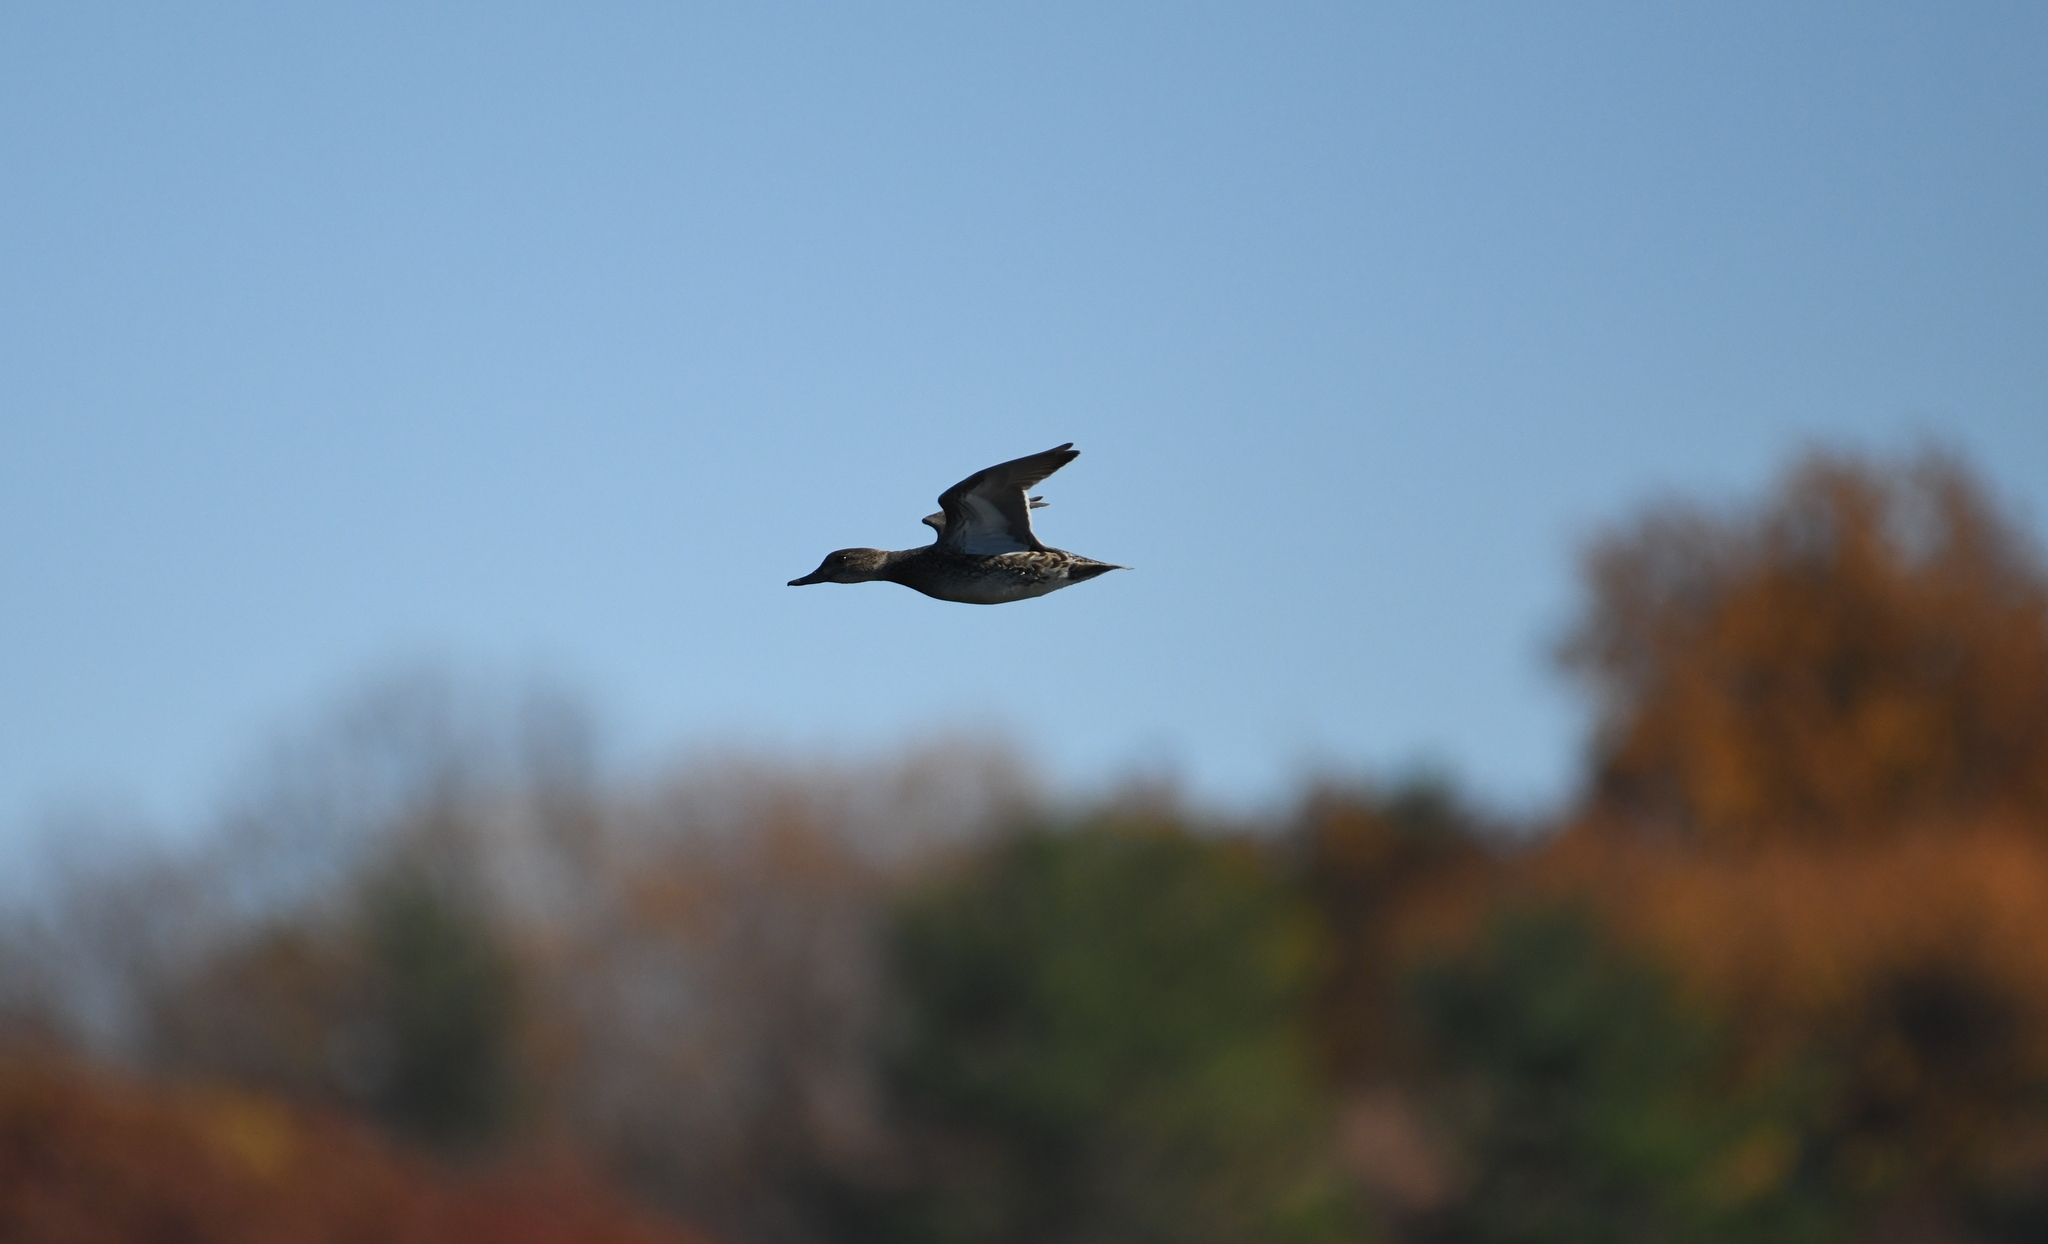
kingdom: Animalia
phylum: Chordata
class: Aves
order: Anseriformes
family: Anatidae
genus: Anas
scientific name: Anas crecca
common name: Eurasian teal
